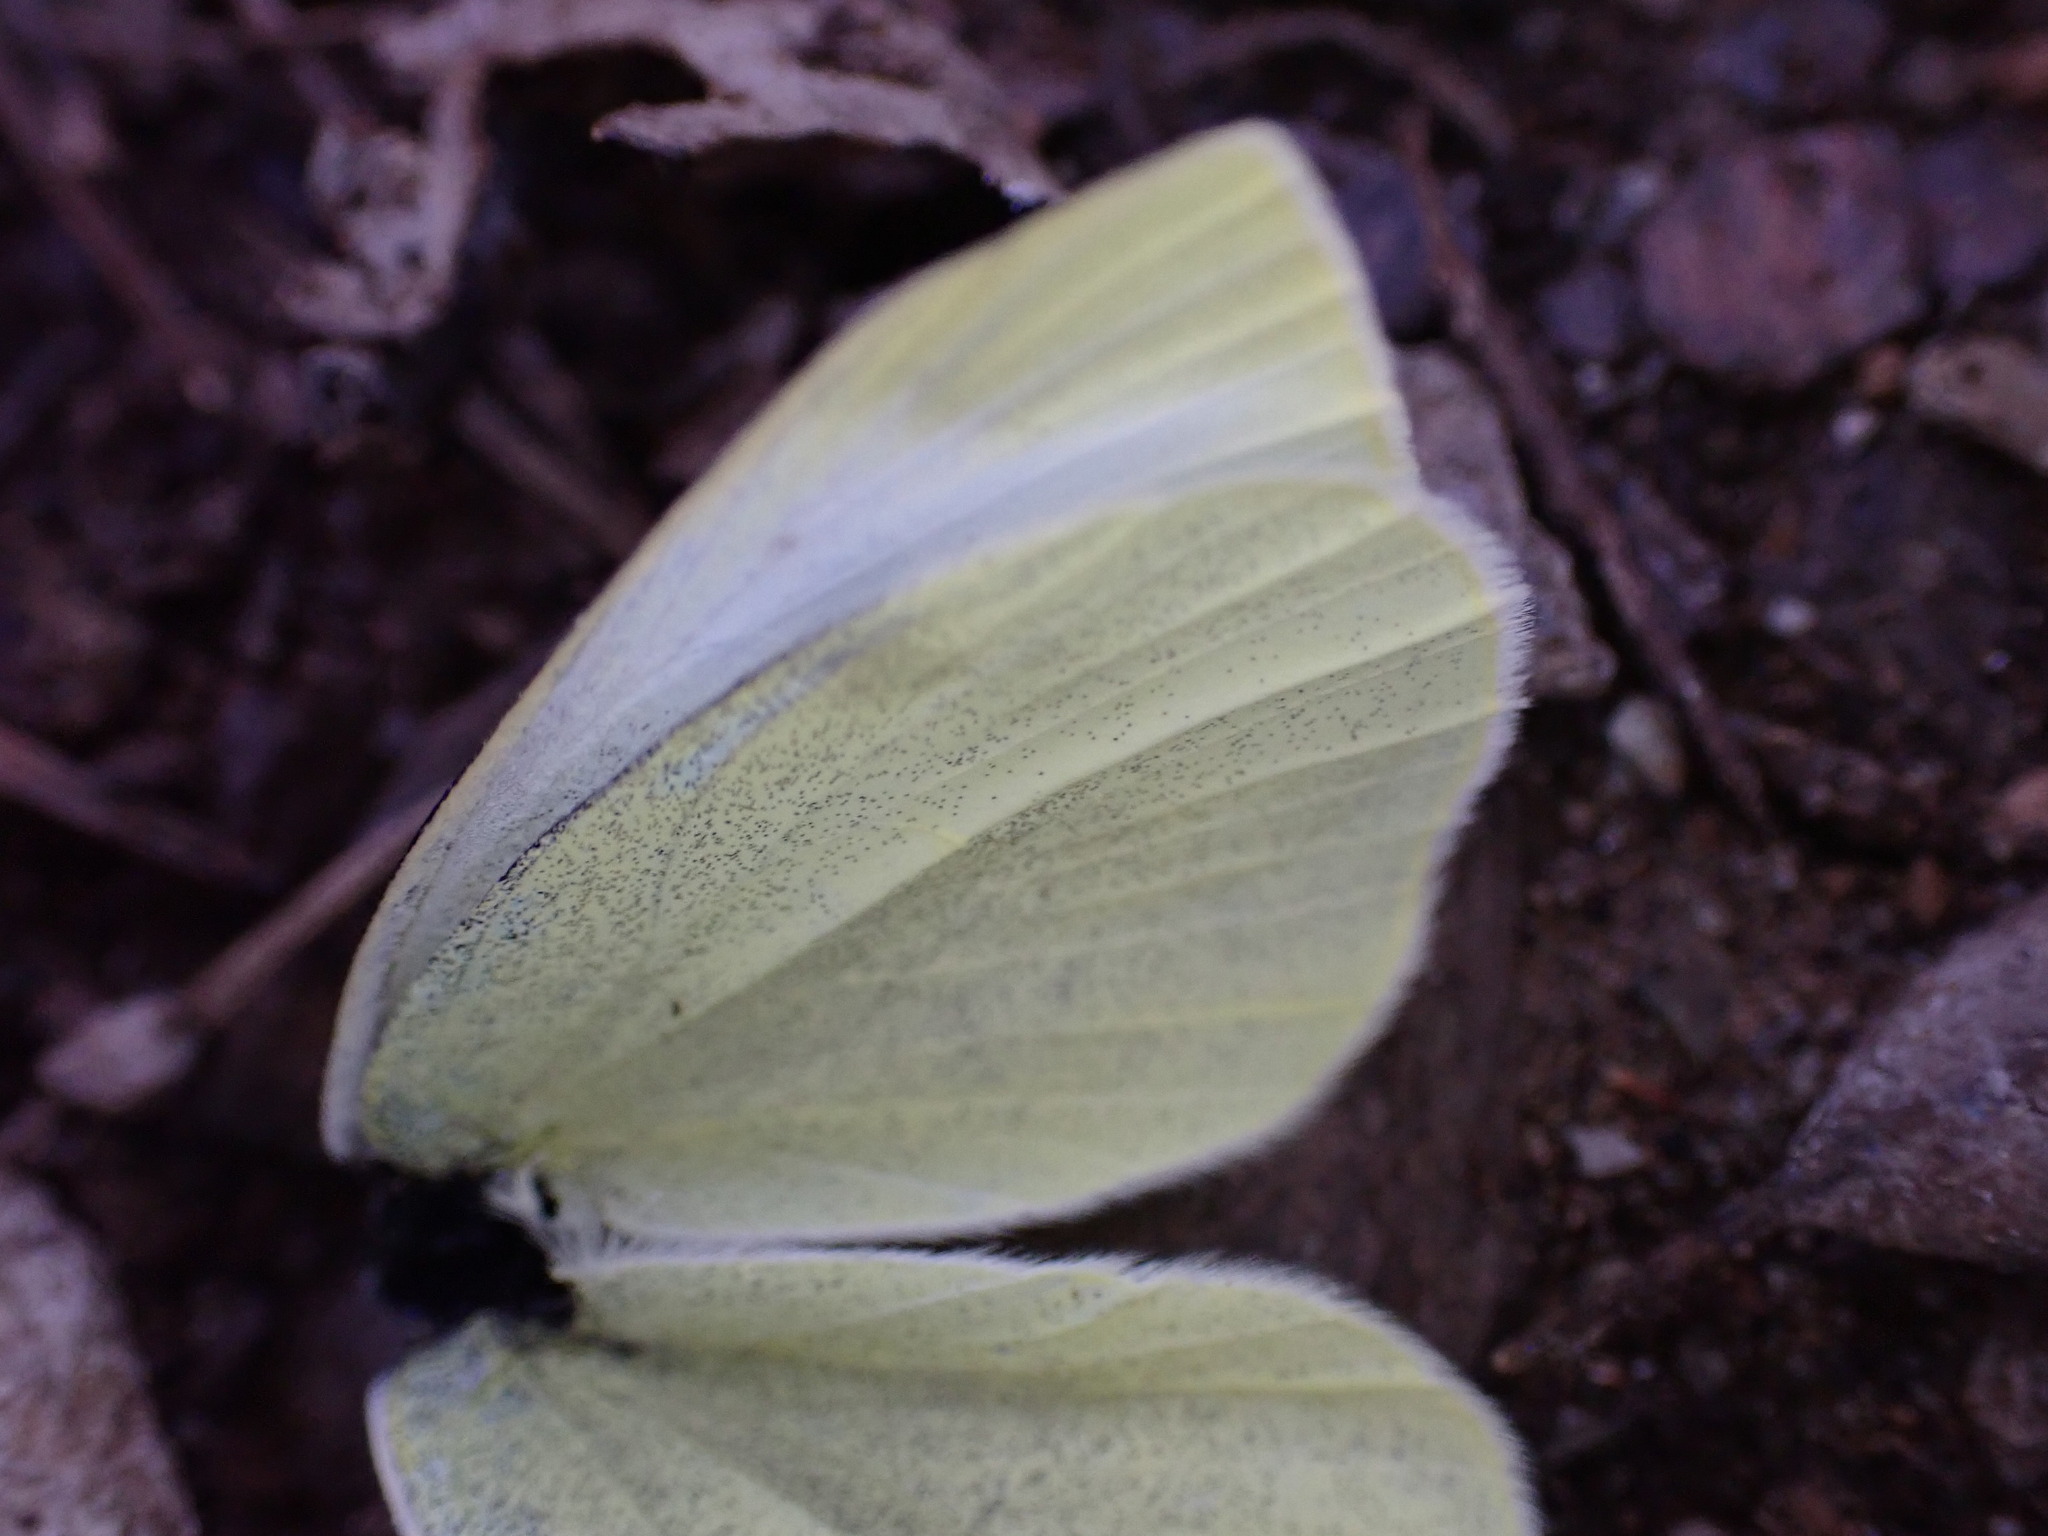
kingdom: Animalia
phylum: Arthropoda
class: Insecta
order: Lepidoptera
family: Pieridae
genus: Pieris
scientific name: Pieris rapae
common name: Small white
